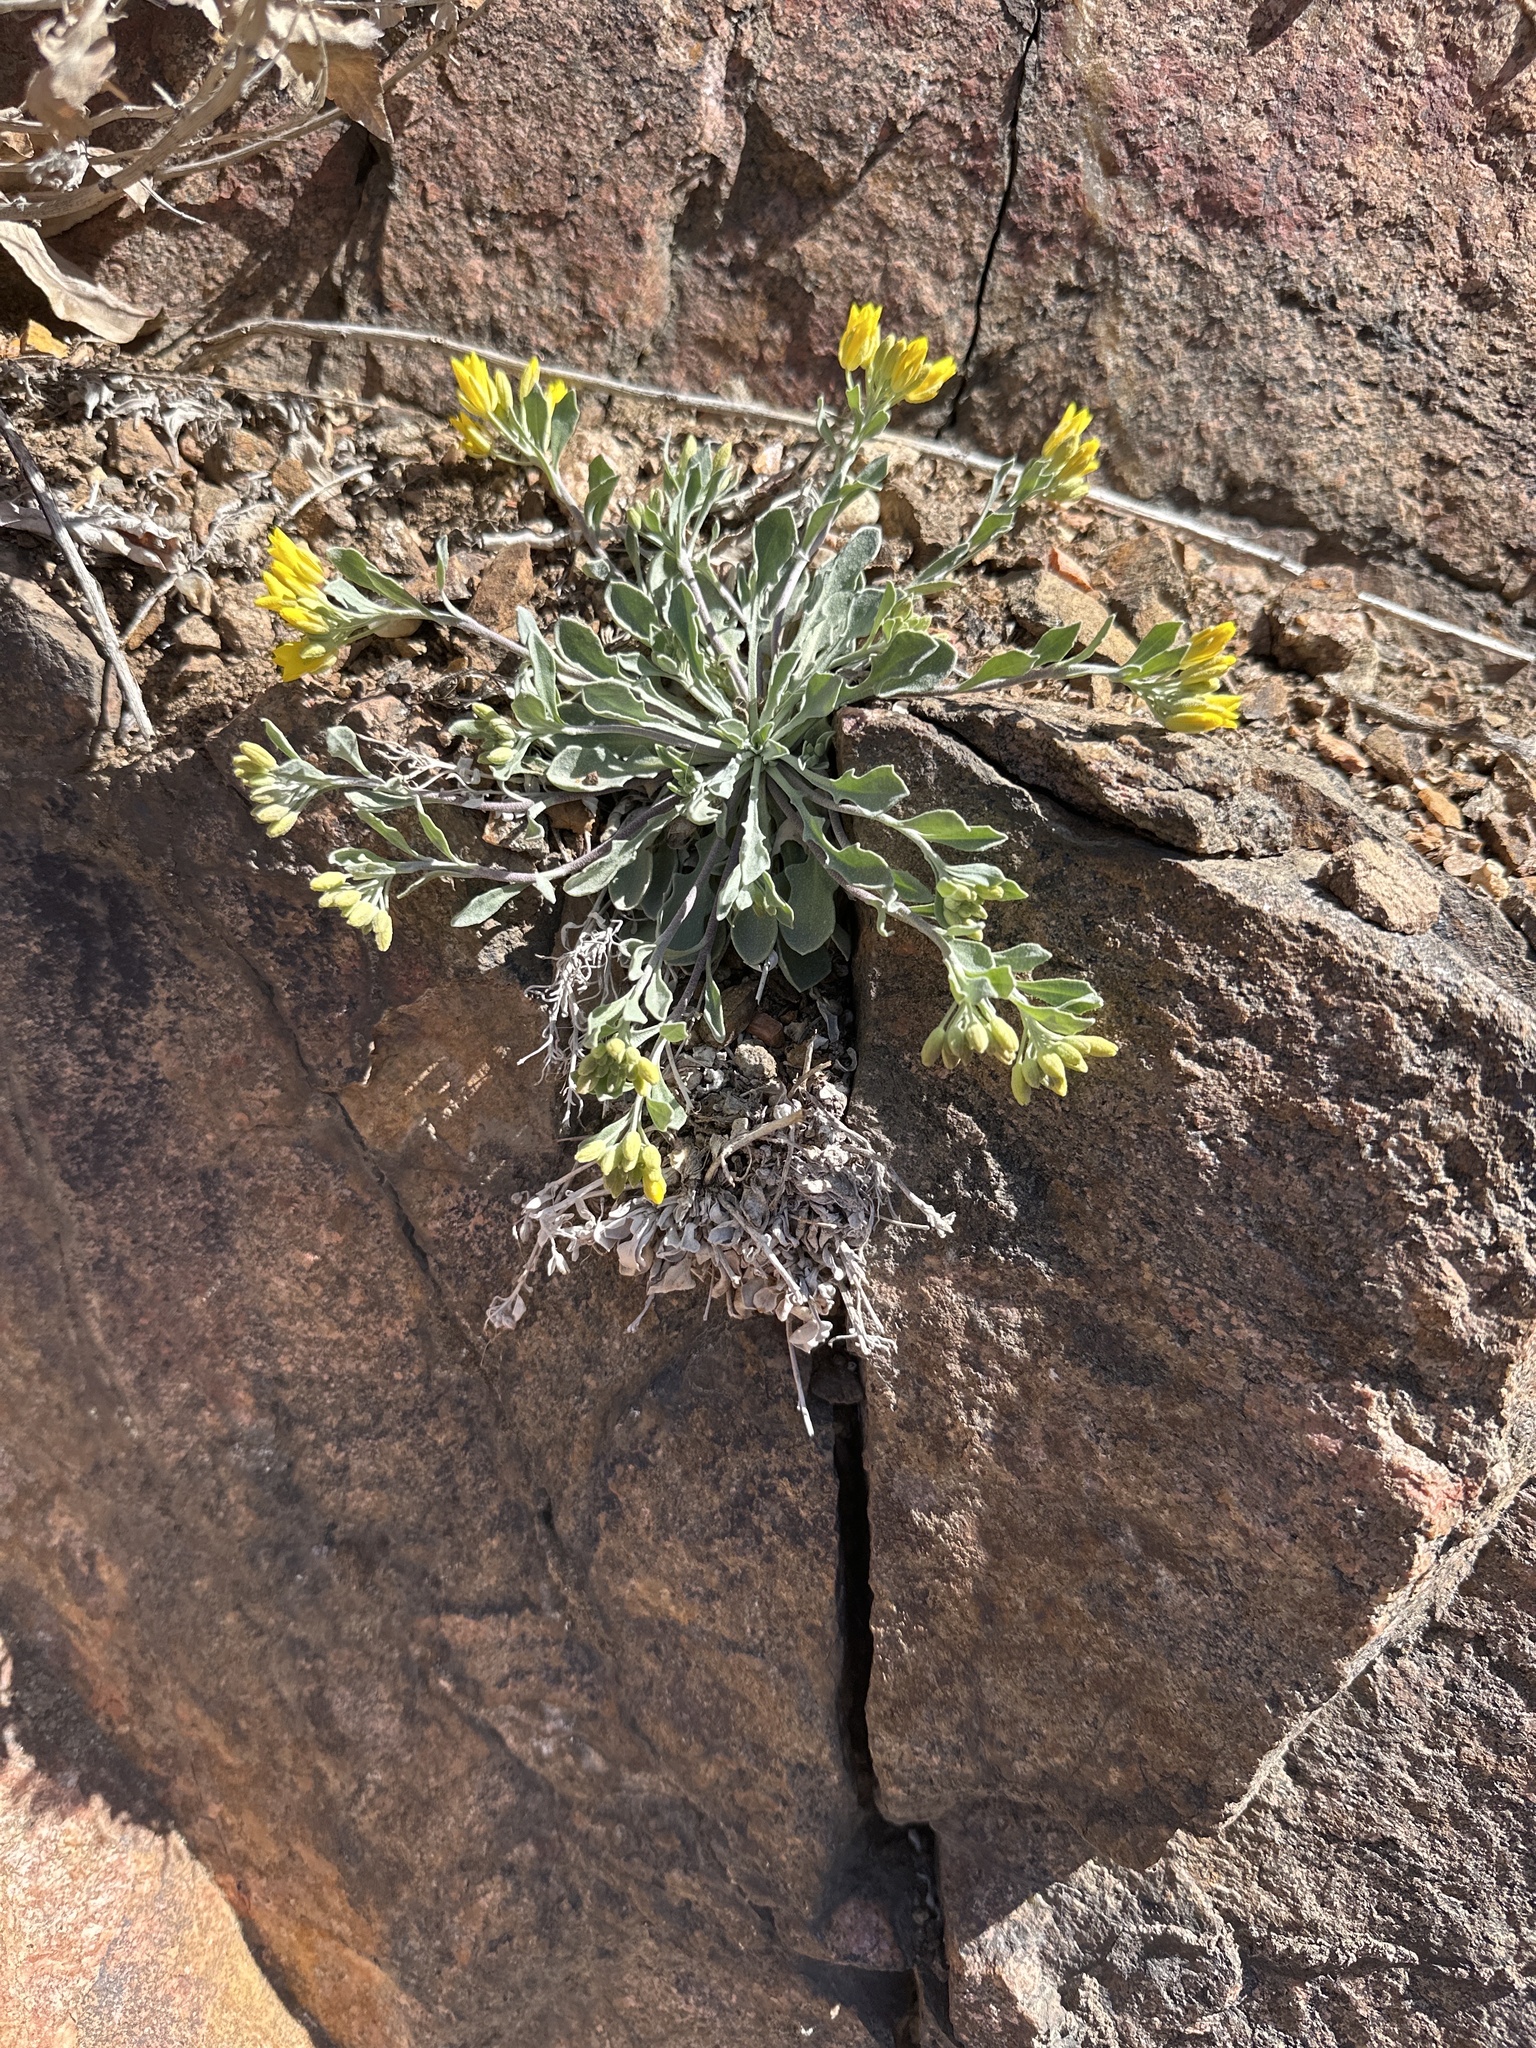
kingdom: Plantae
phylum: Tracheophyta
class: Magnoliopsida
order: Brassicales
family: Brassicaceae
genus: Physaria
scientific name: Physaria vitulifera
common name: Roundtrip twinpod
